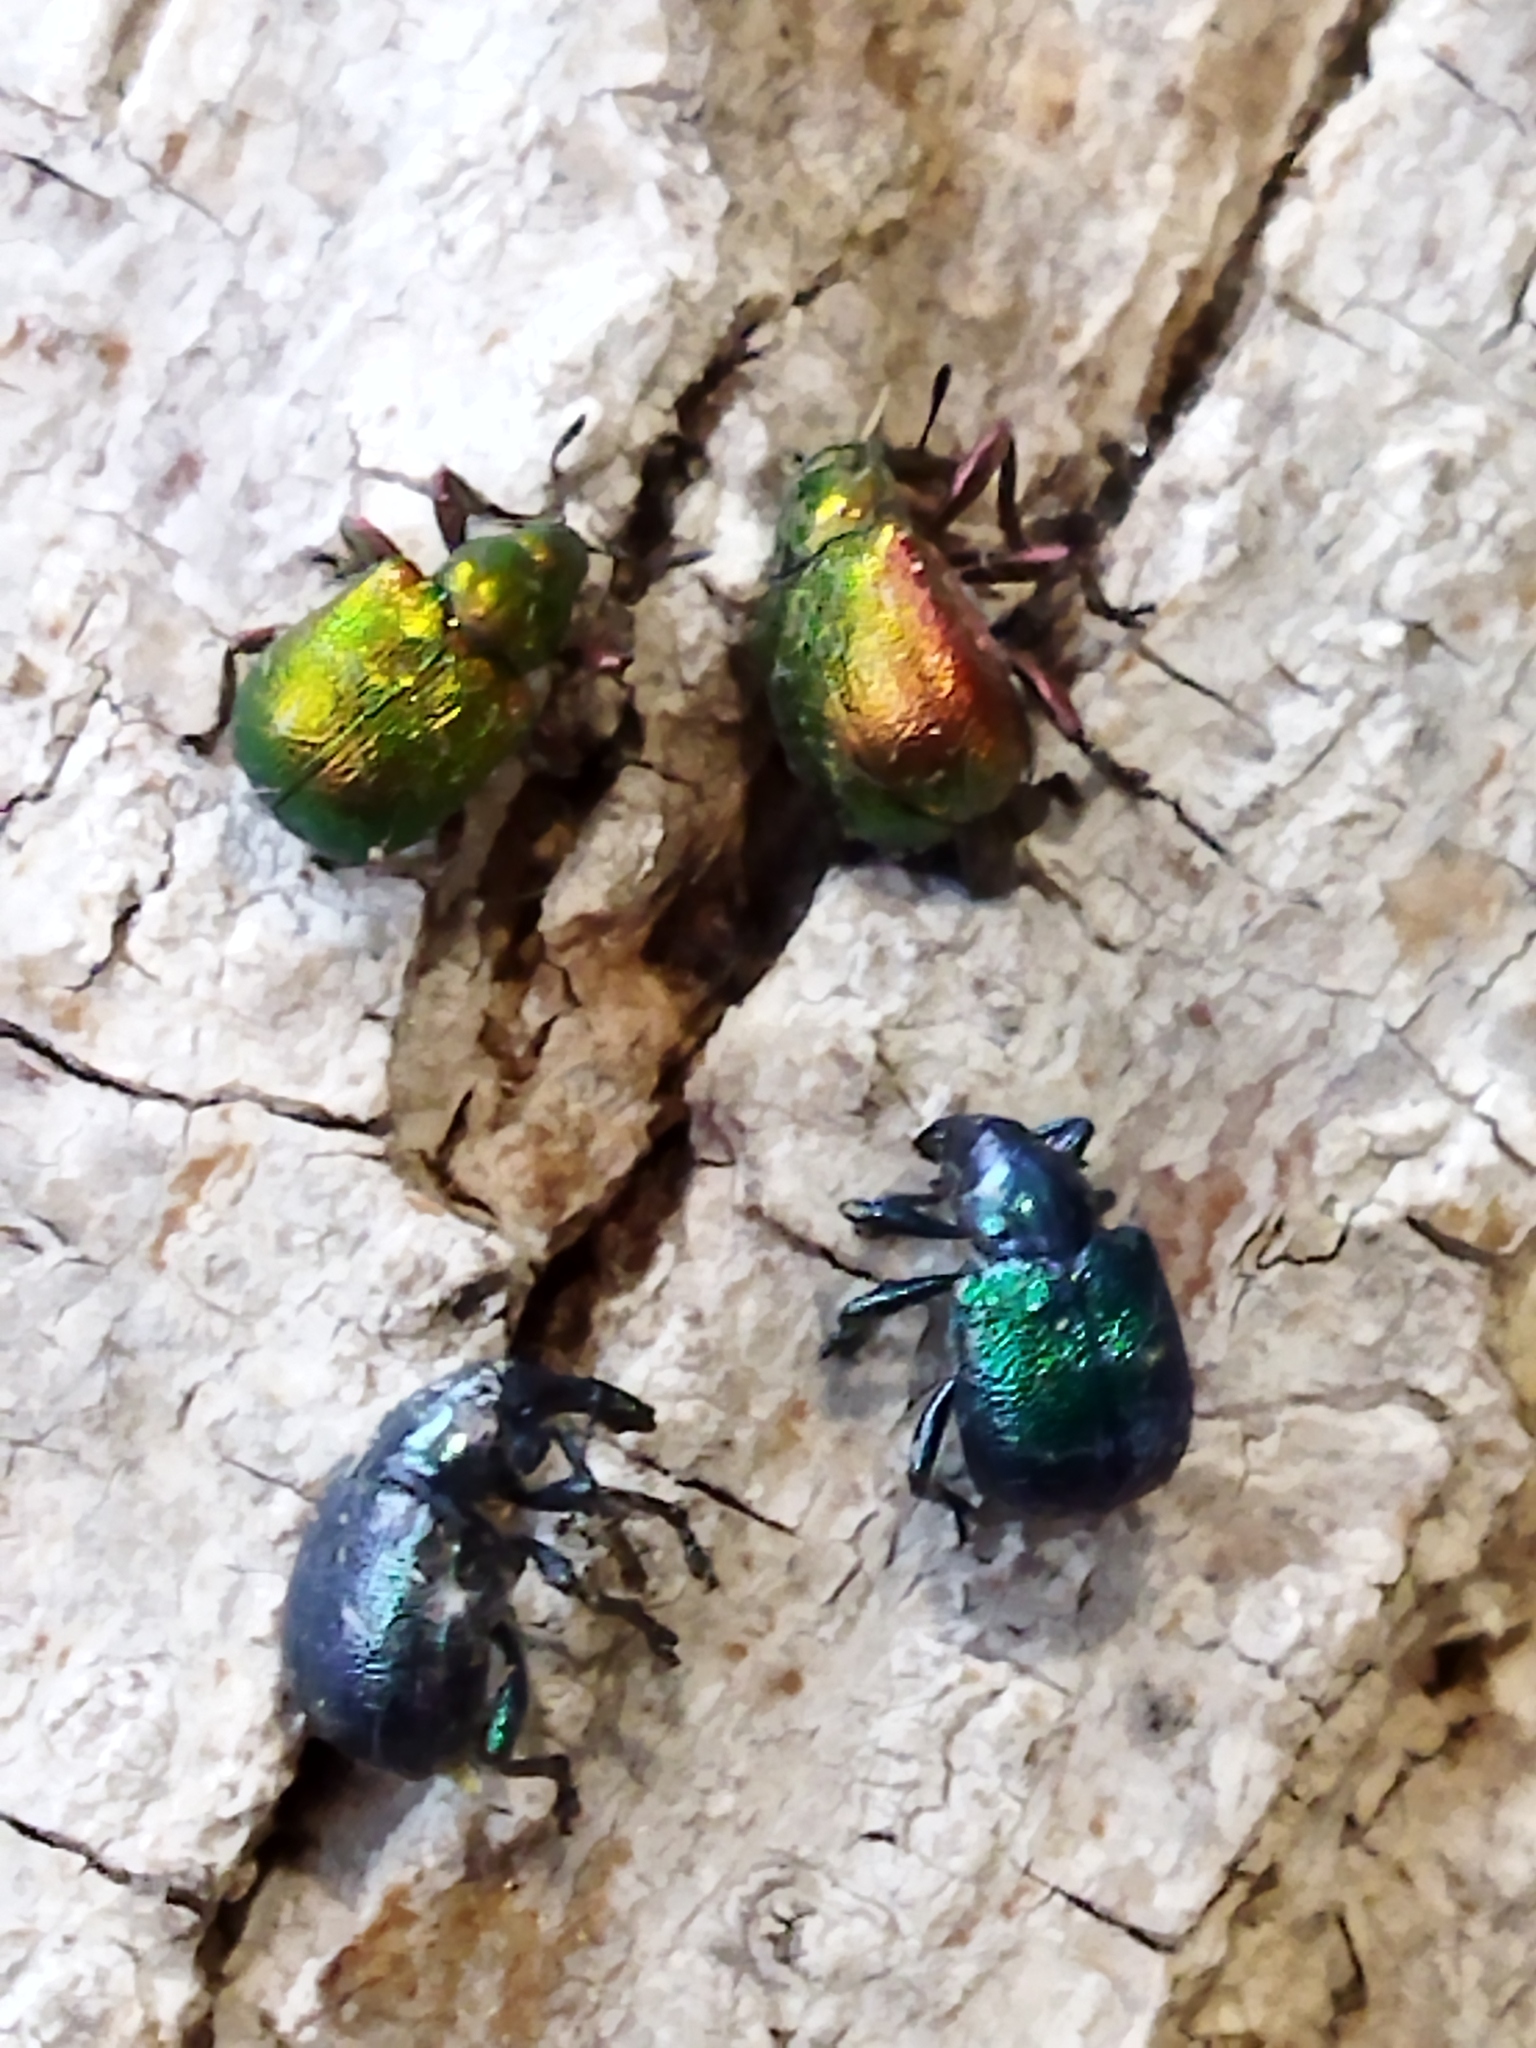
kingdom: Animalia
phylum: Arthropoda
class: Insecta
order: Coleoptera
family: Attelabidae
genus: Byctiscus
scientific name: Byctiscus betulae
